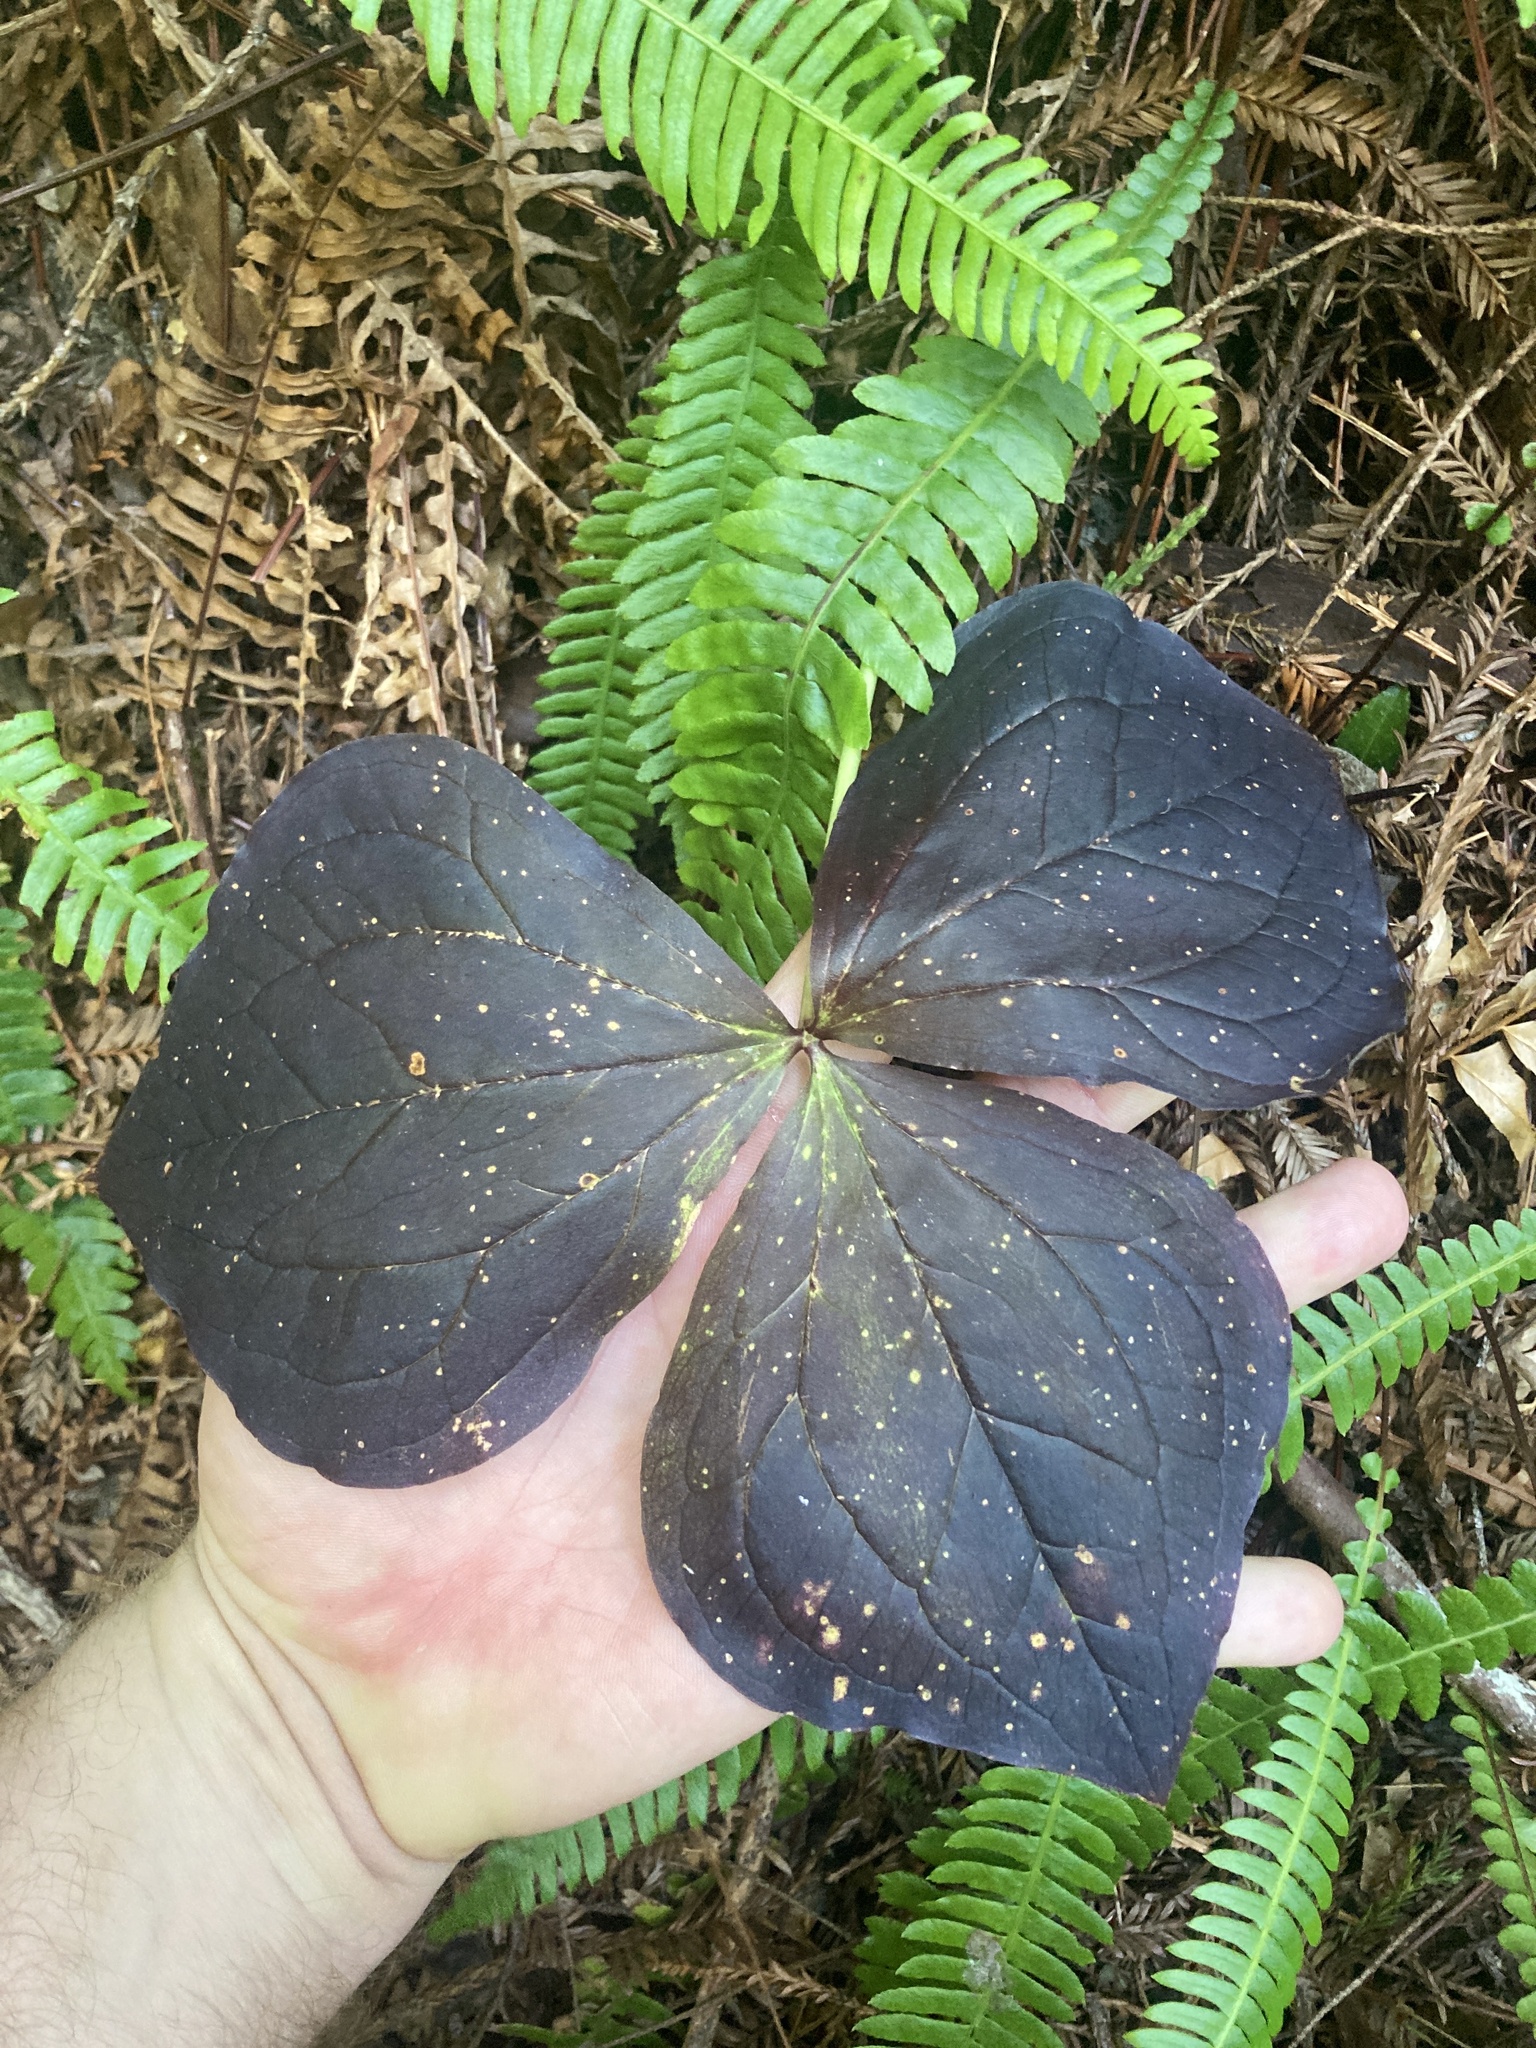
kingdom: Plantae
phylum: Tracheophyta
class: Liliopsida
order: Liliales
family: Melanthiaceae
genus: Trillium
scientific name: Trillium ovatum
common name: Pacific trillium
